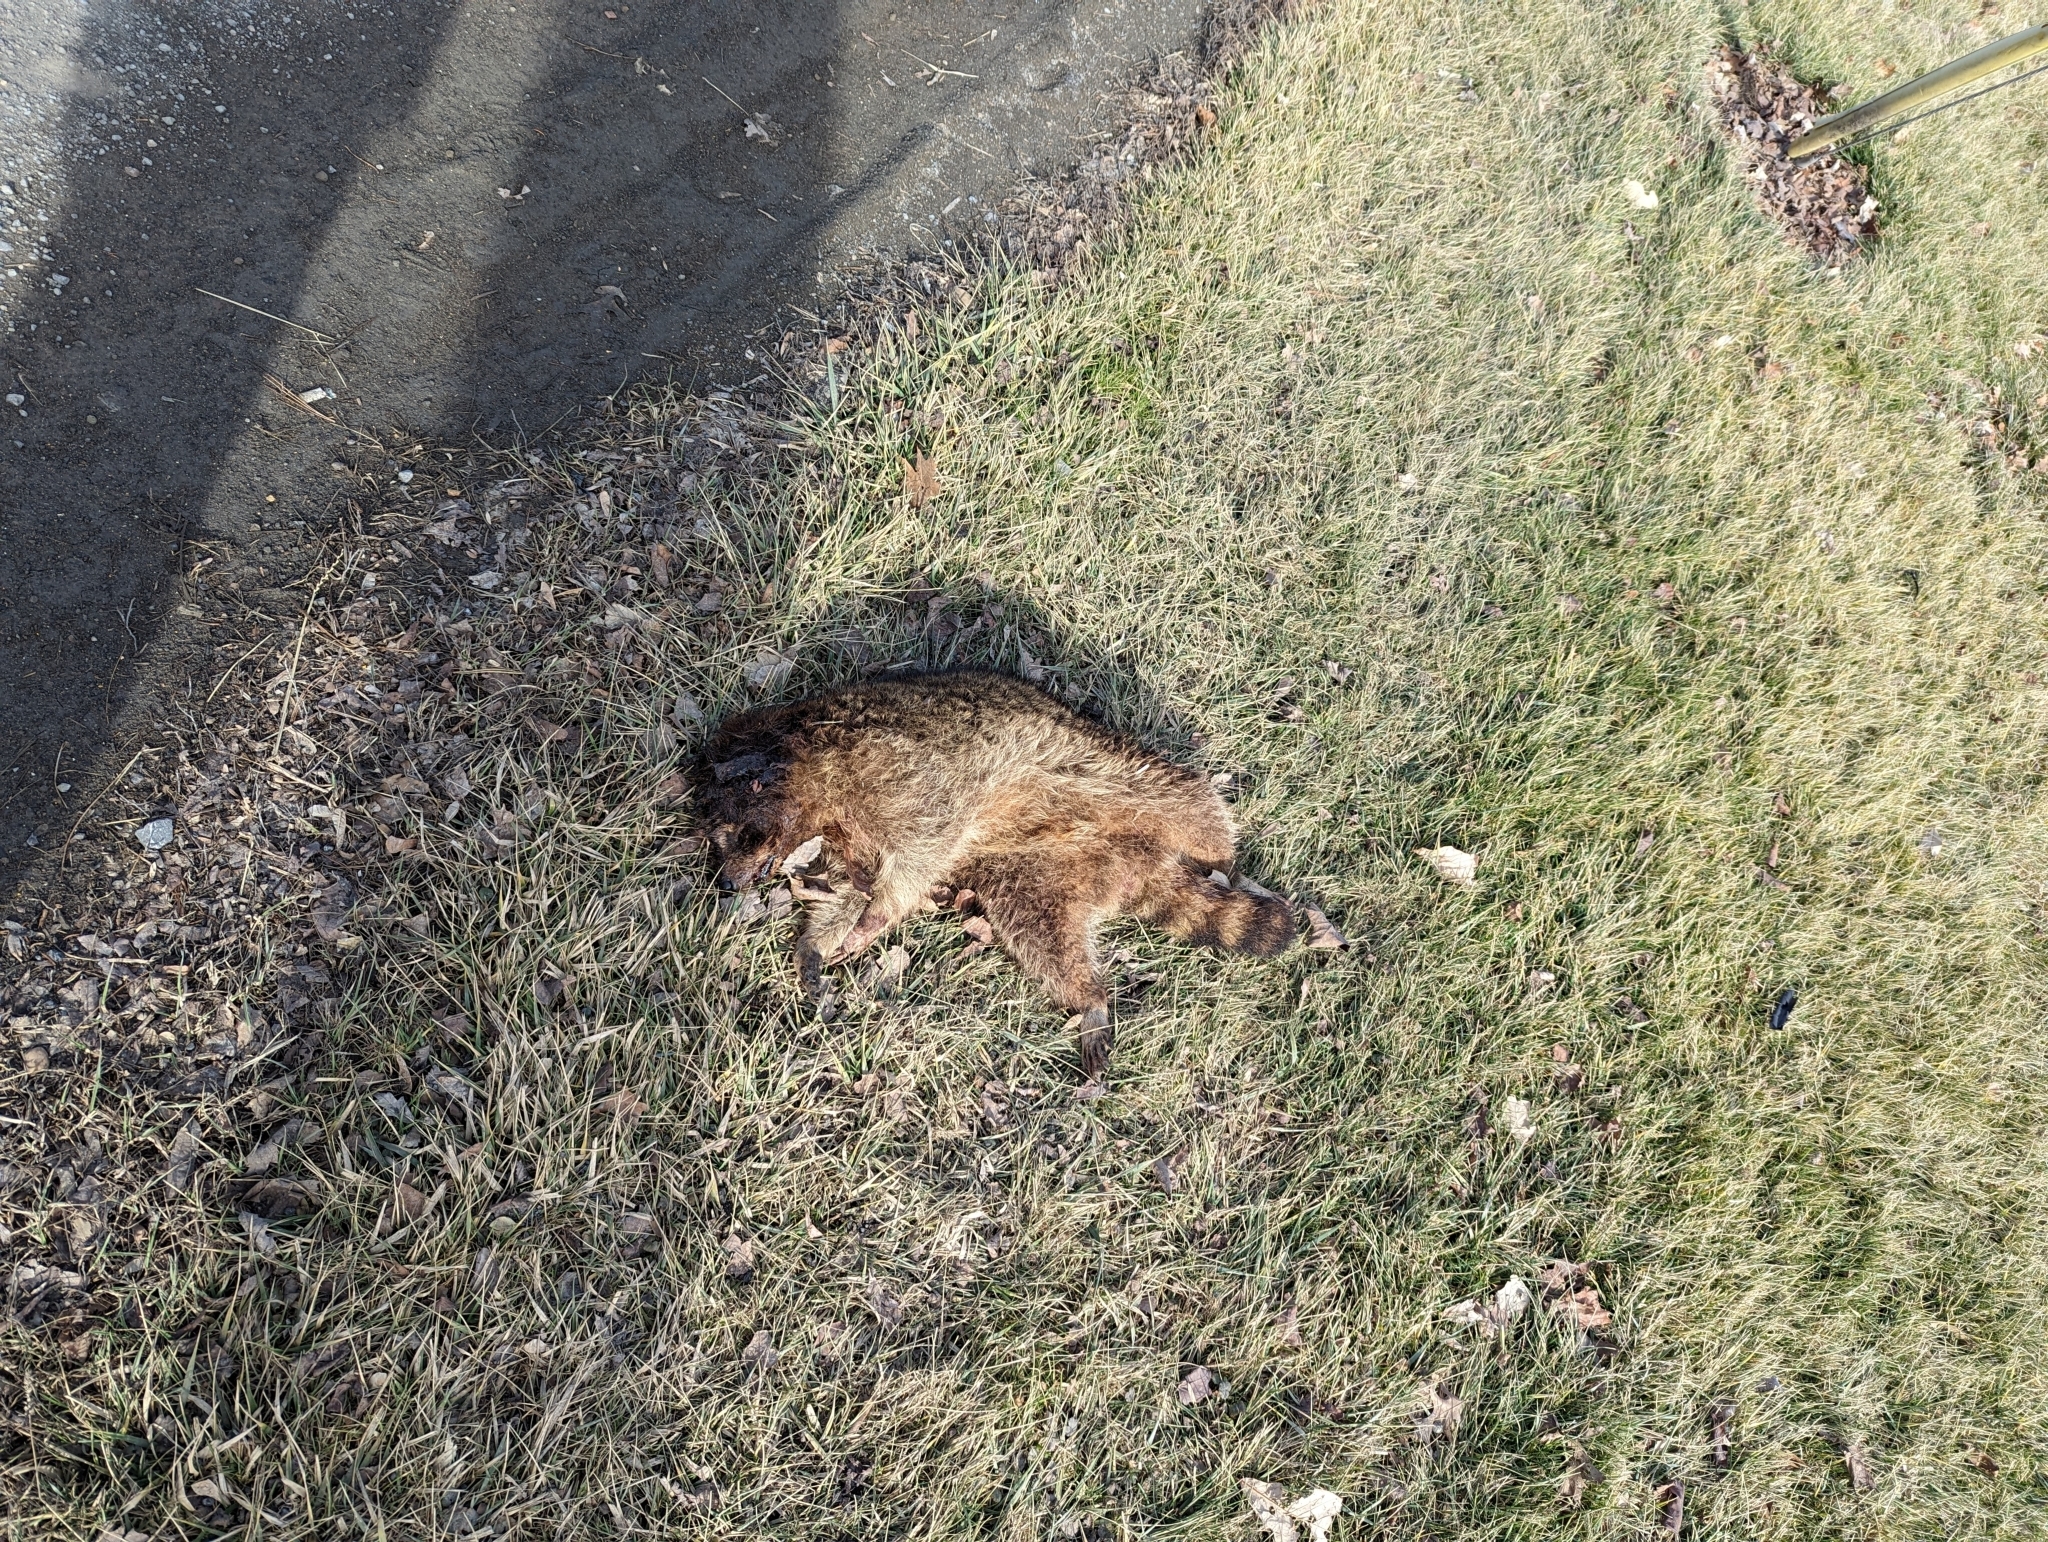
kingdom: Animalia
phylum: Chordata
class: Mammalia
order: Carnivora
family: Procyonidae
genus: Procyon
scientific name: Procyon lotor
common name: Raccoon
